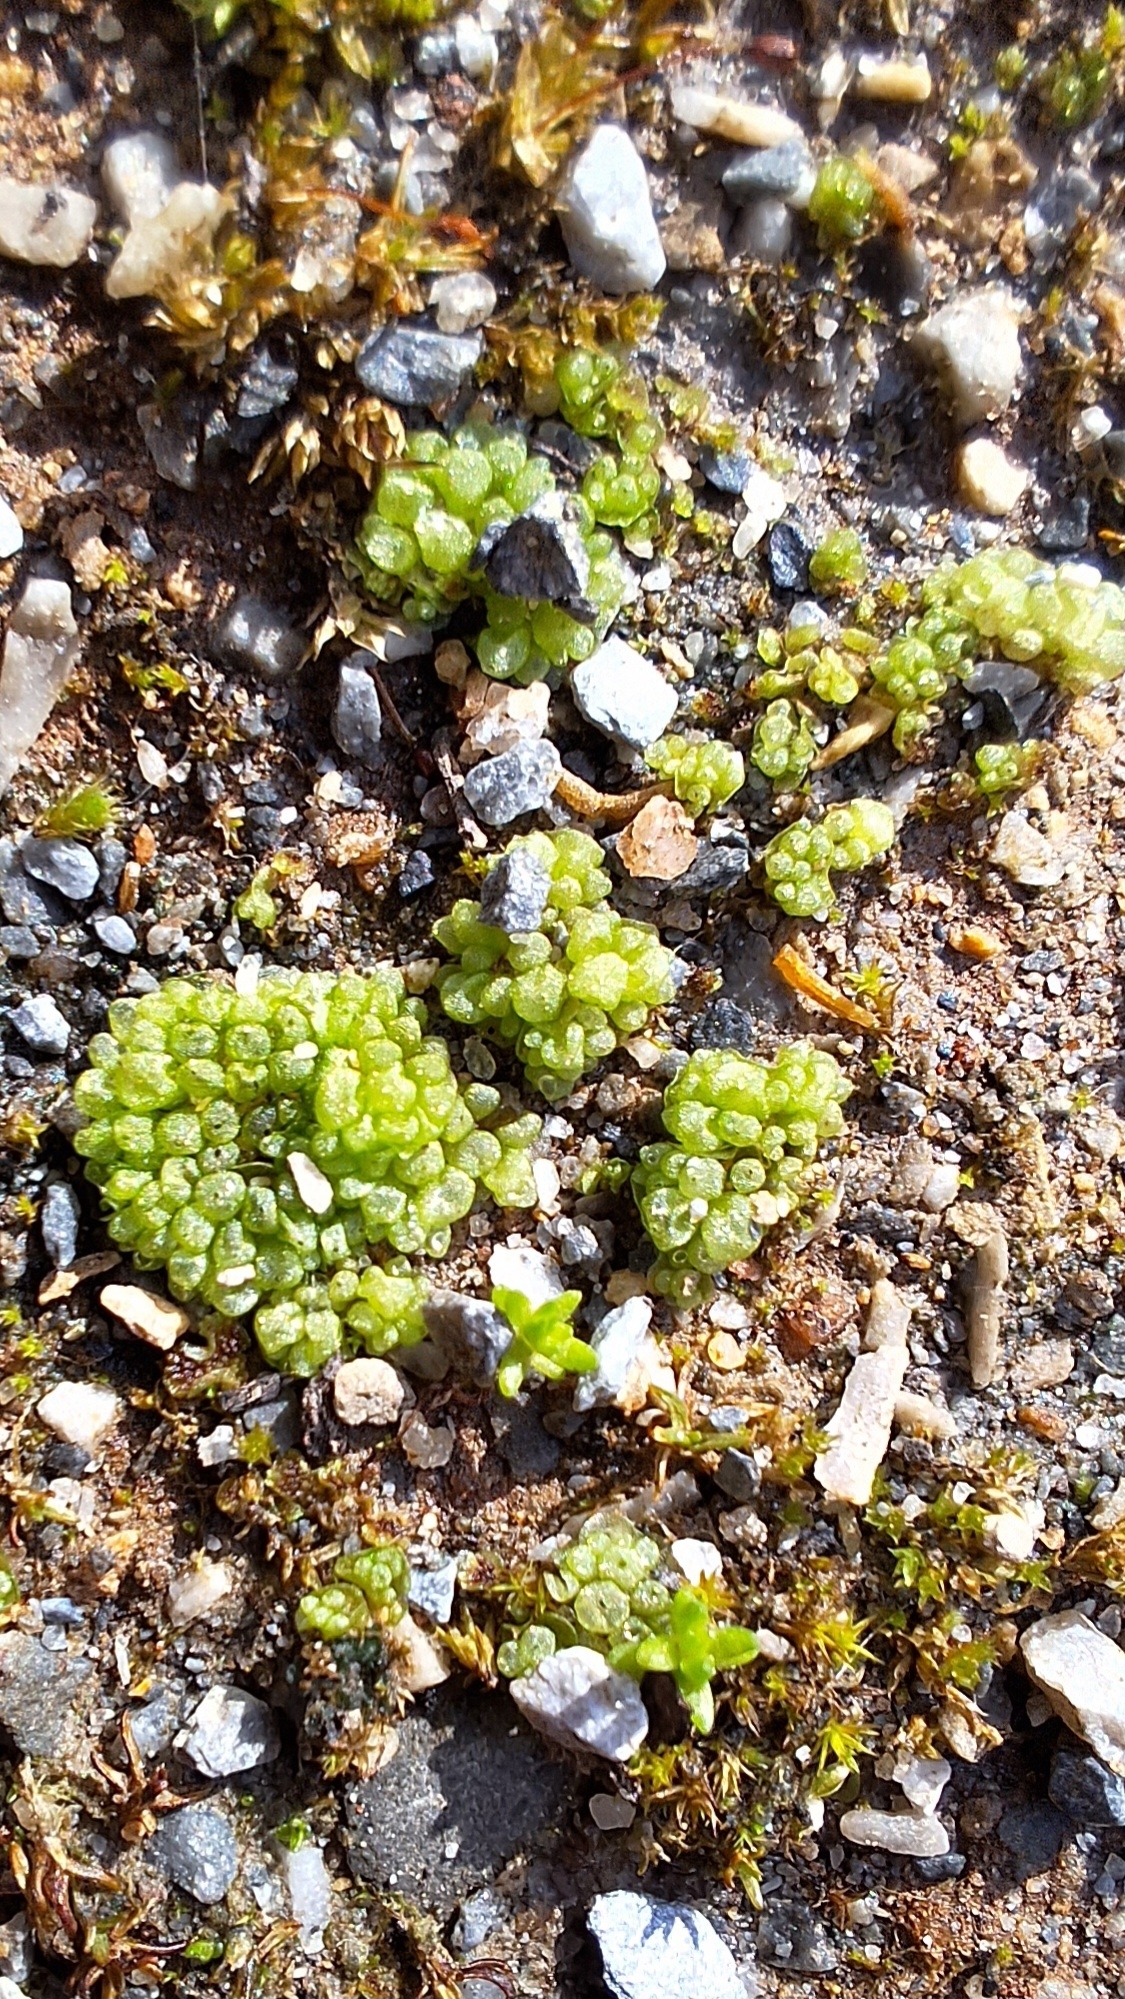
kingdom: Plantae
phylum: Marchantiophyta
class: Marchantiopsida
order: Sphaerocarpales
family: Sphaerocarpaceae
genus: Sphaerocarpos
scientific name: Sphaerocarpos texanus
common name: Texas balloonwort
